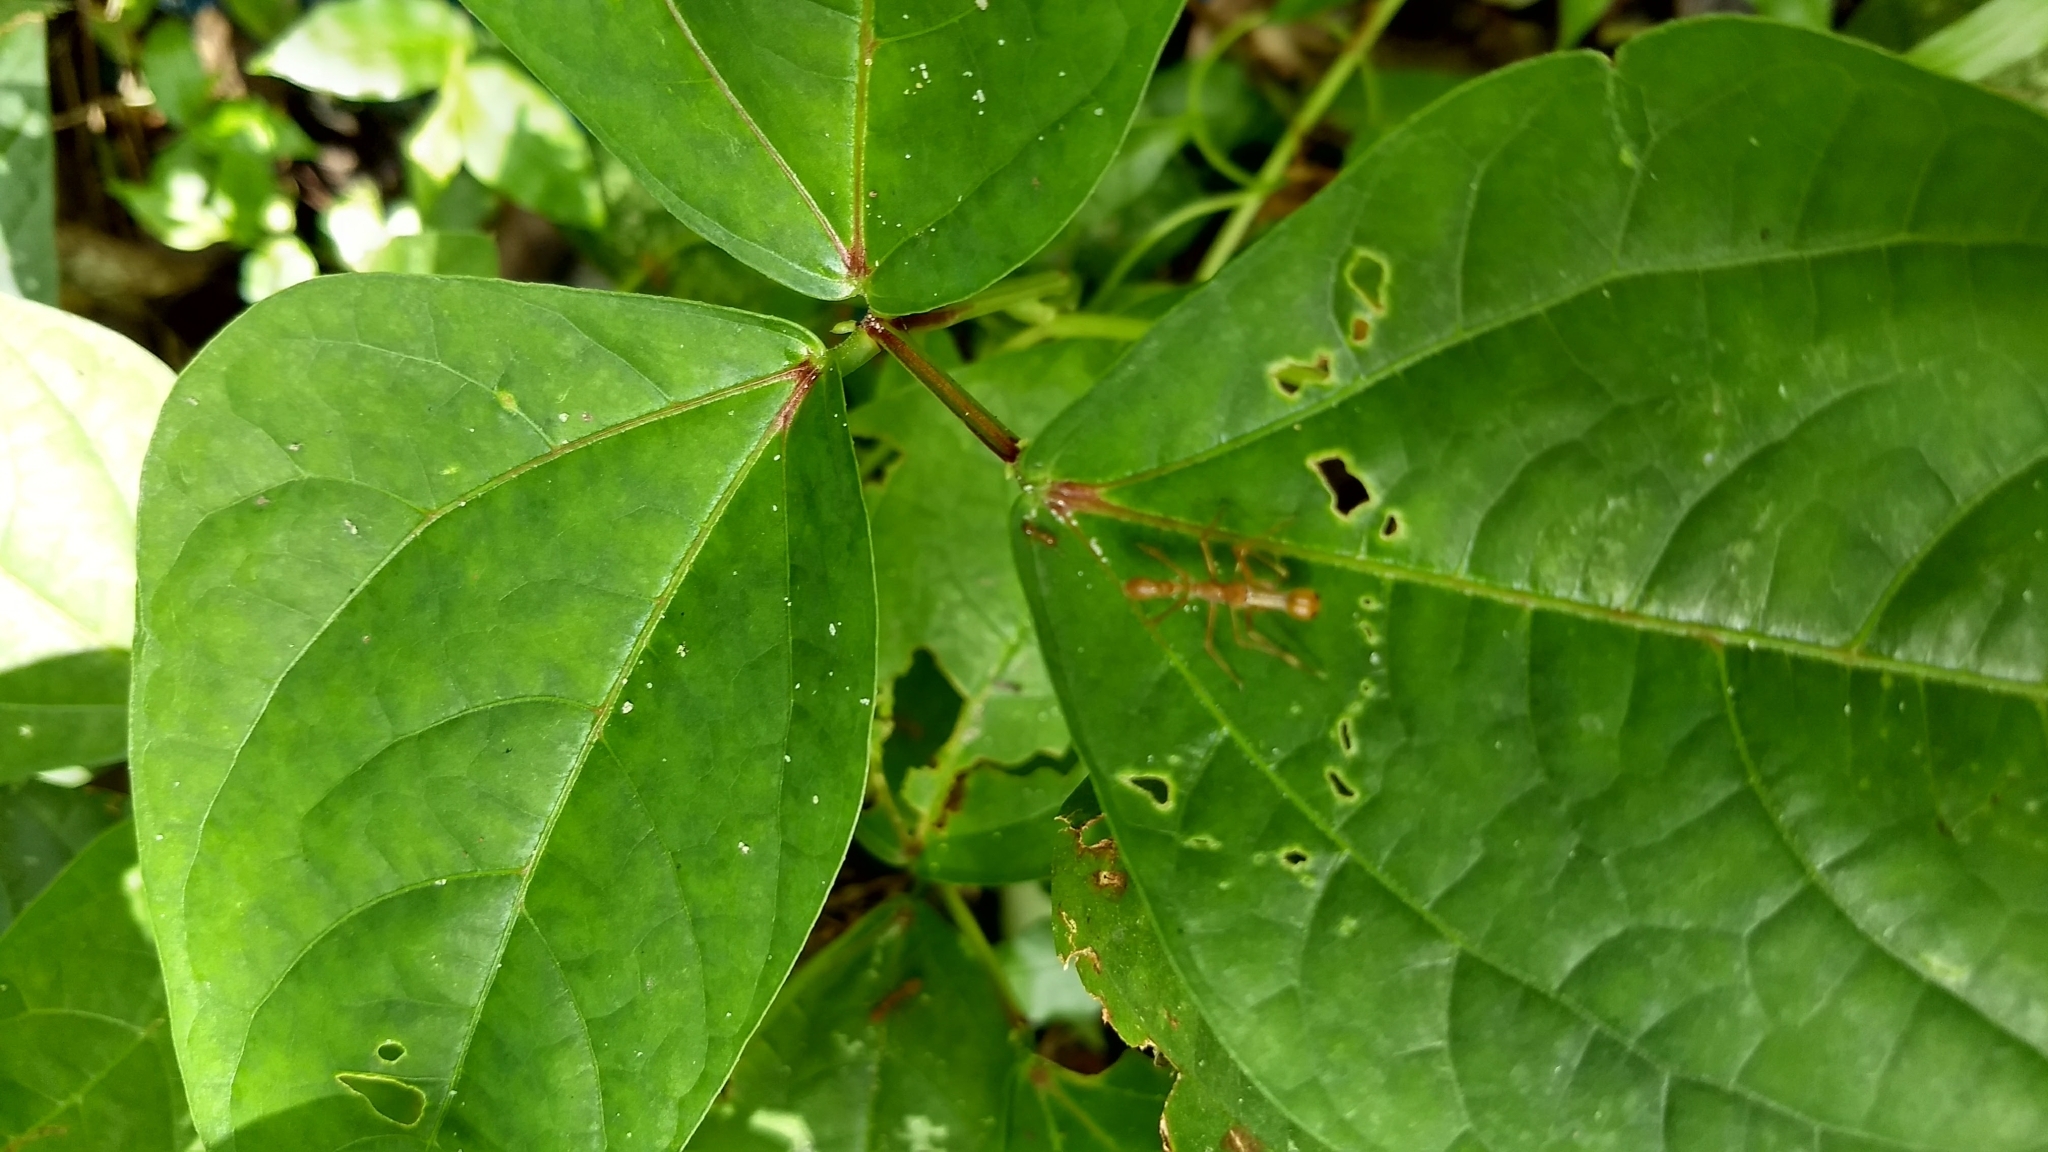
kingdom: Animalia
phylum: Arthropoda
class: Arachnida
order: Araneae
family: Salticidae
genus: Myrmaplata
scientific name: Myrmaplata plataleoides
